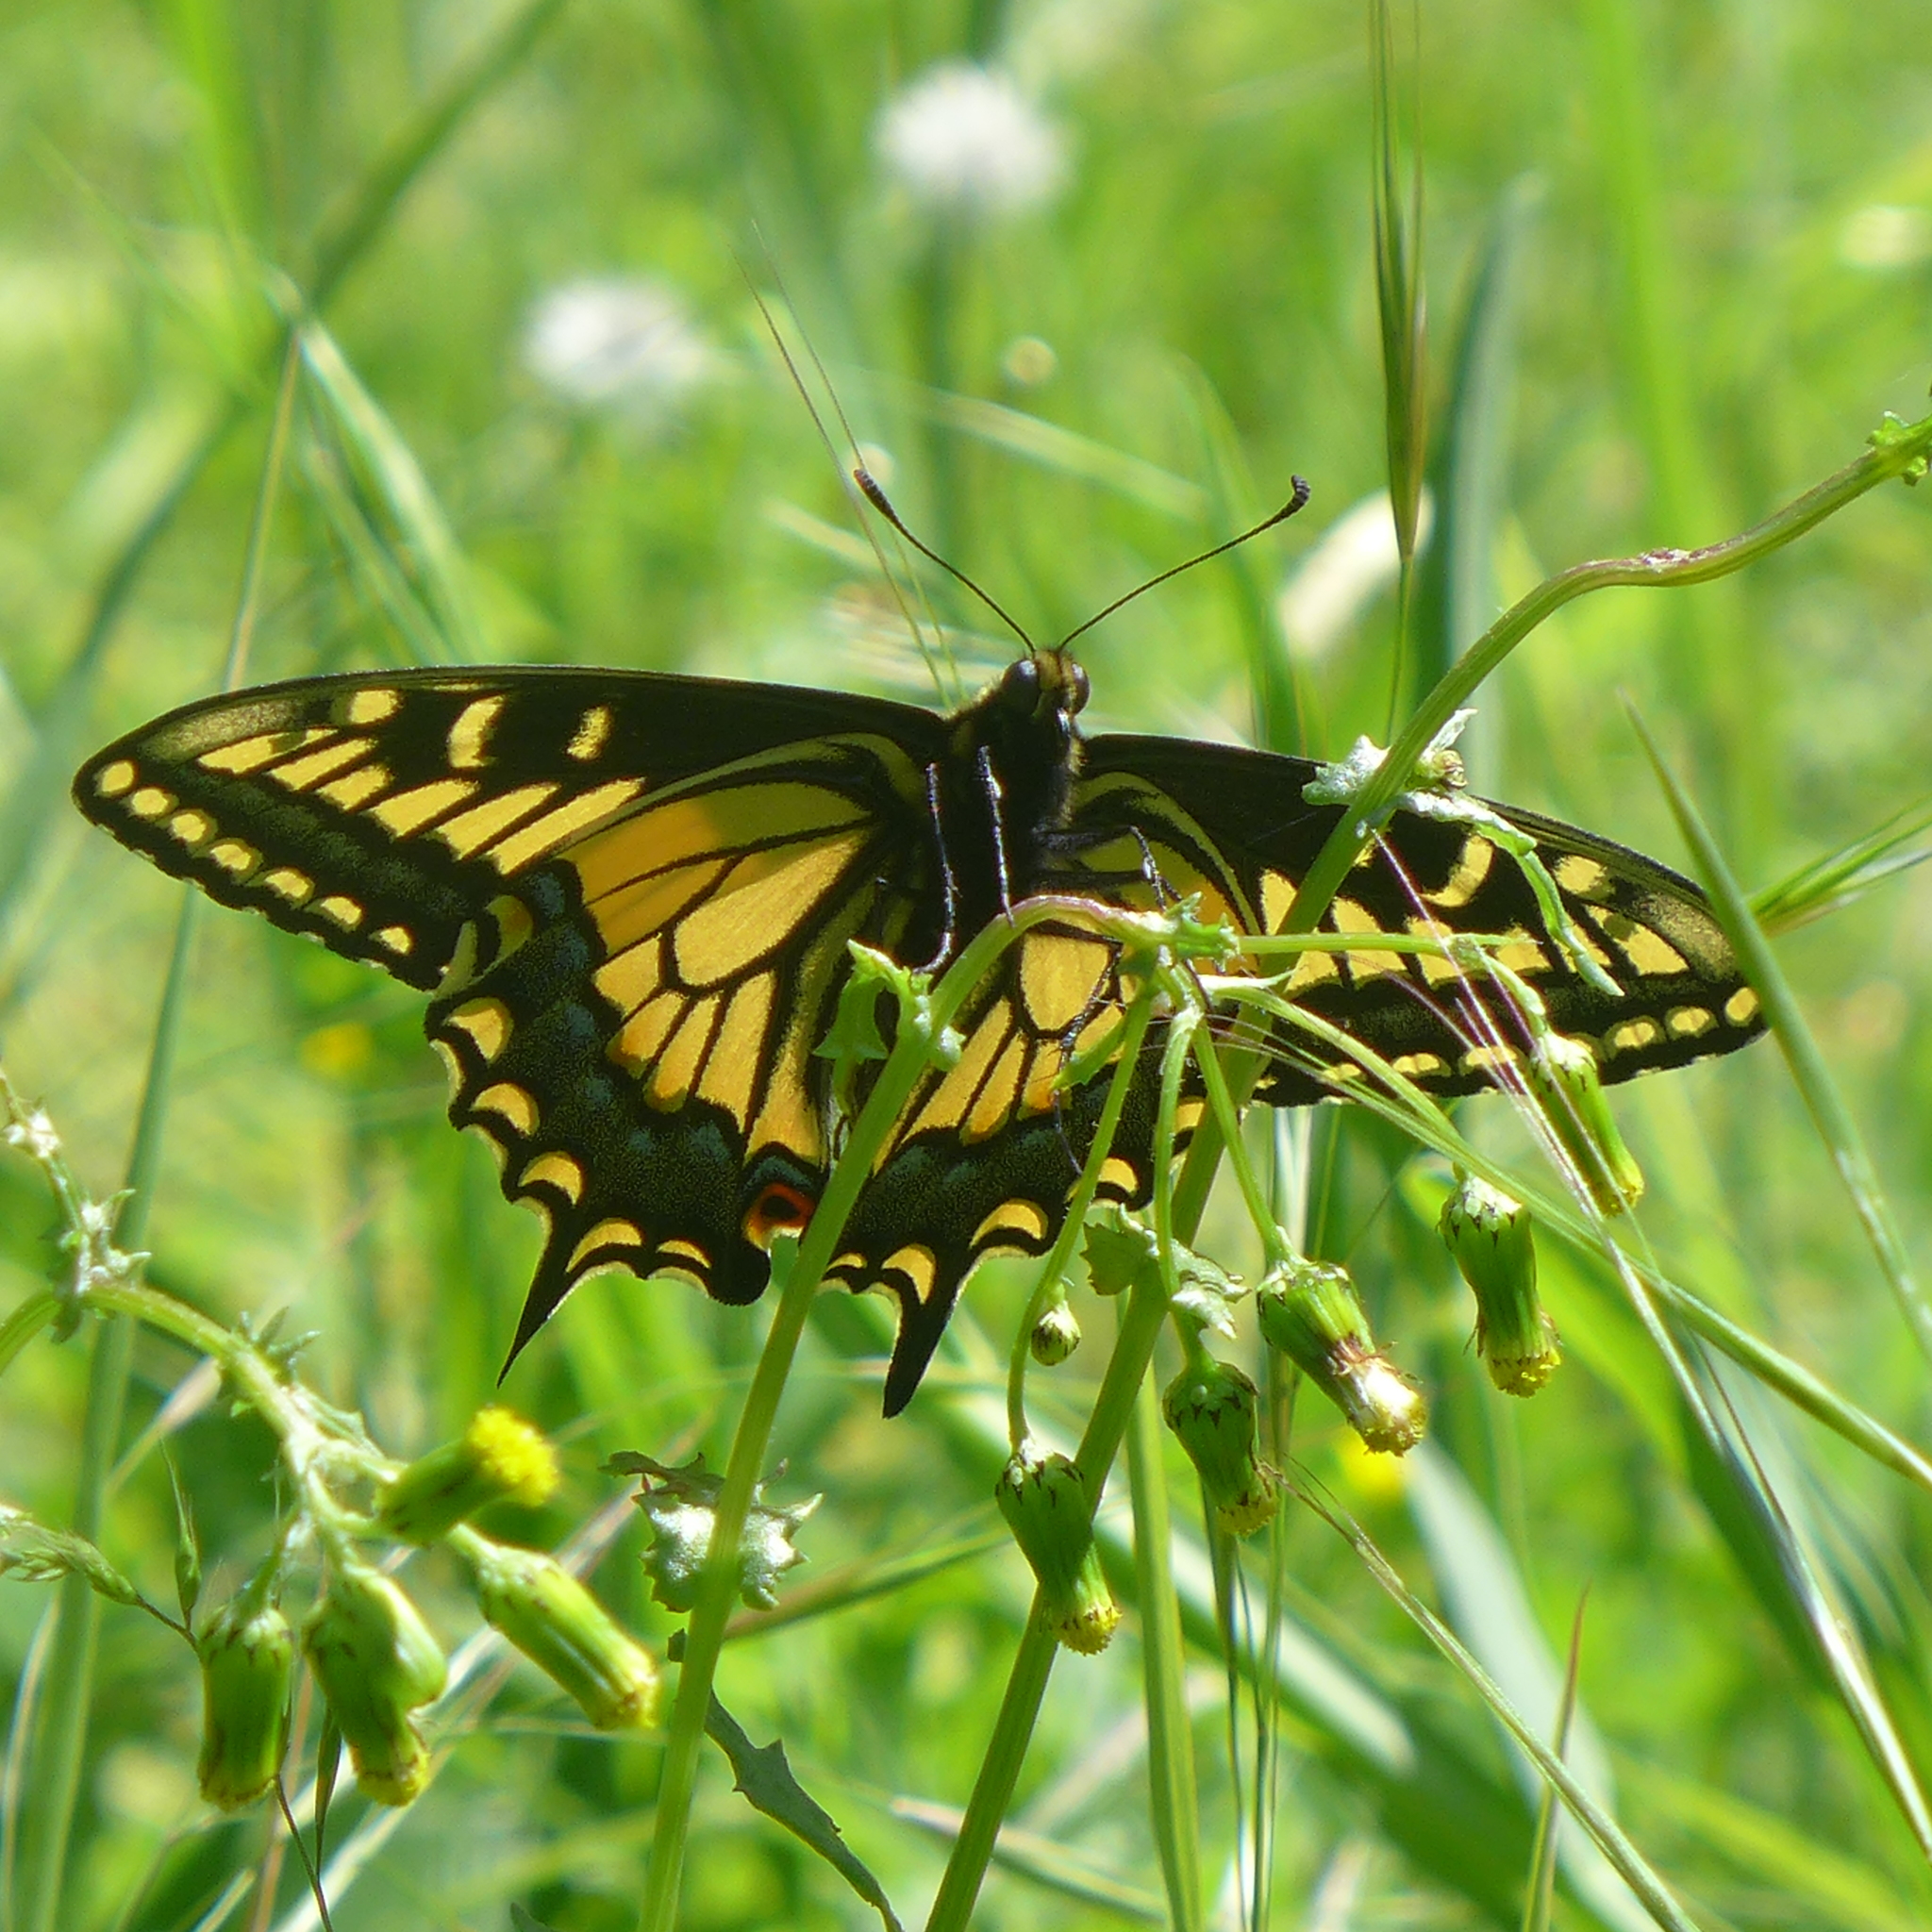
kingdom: Animalia
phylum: Arthropoda
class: Insecta
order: Lepidoptera
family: Papilionidae
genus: Papilio
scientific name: Papilio zelicaon
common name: Anise swallowtail
